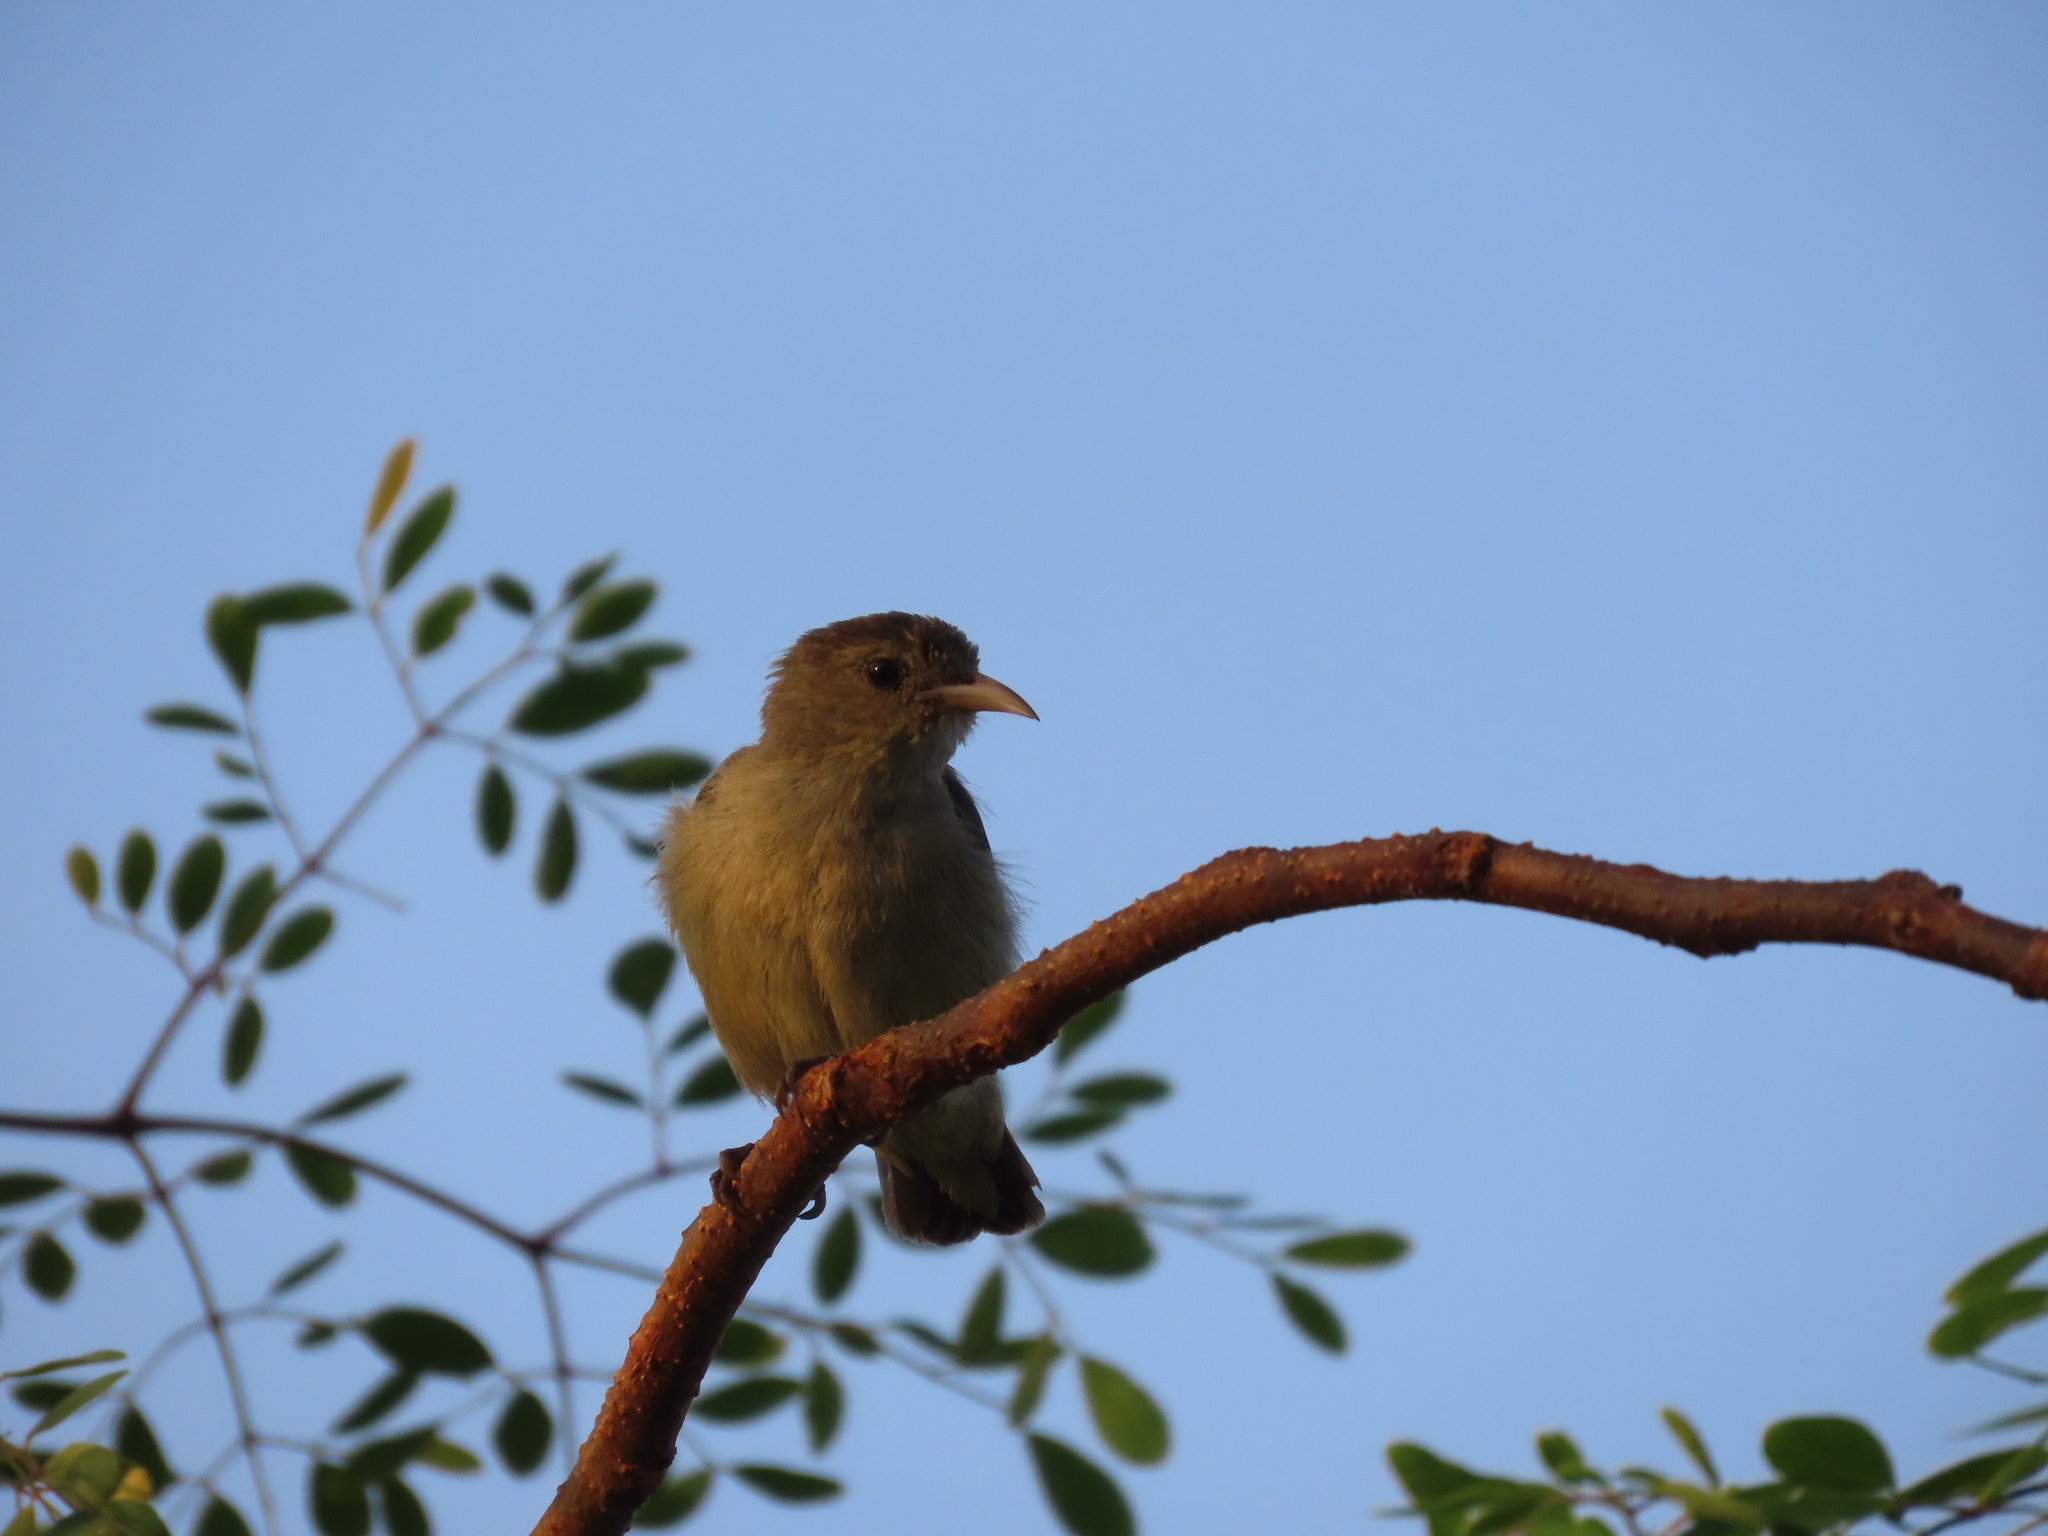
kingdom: Animalia
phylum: Chordata
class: Aves
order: Passeriformes
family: Dicaeidae
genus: Dicaeum
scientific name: Dicaeum erythrorhynchos
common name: Pale-billed flowerpecker
